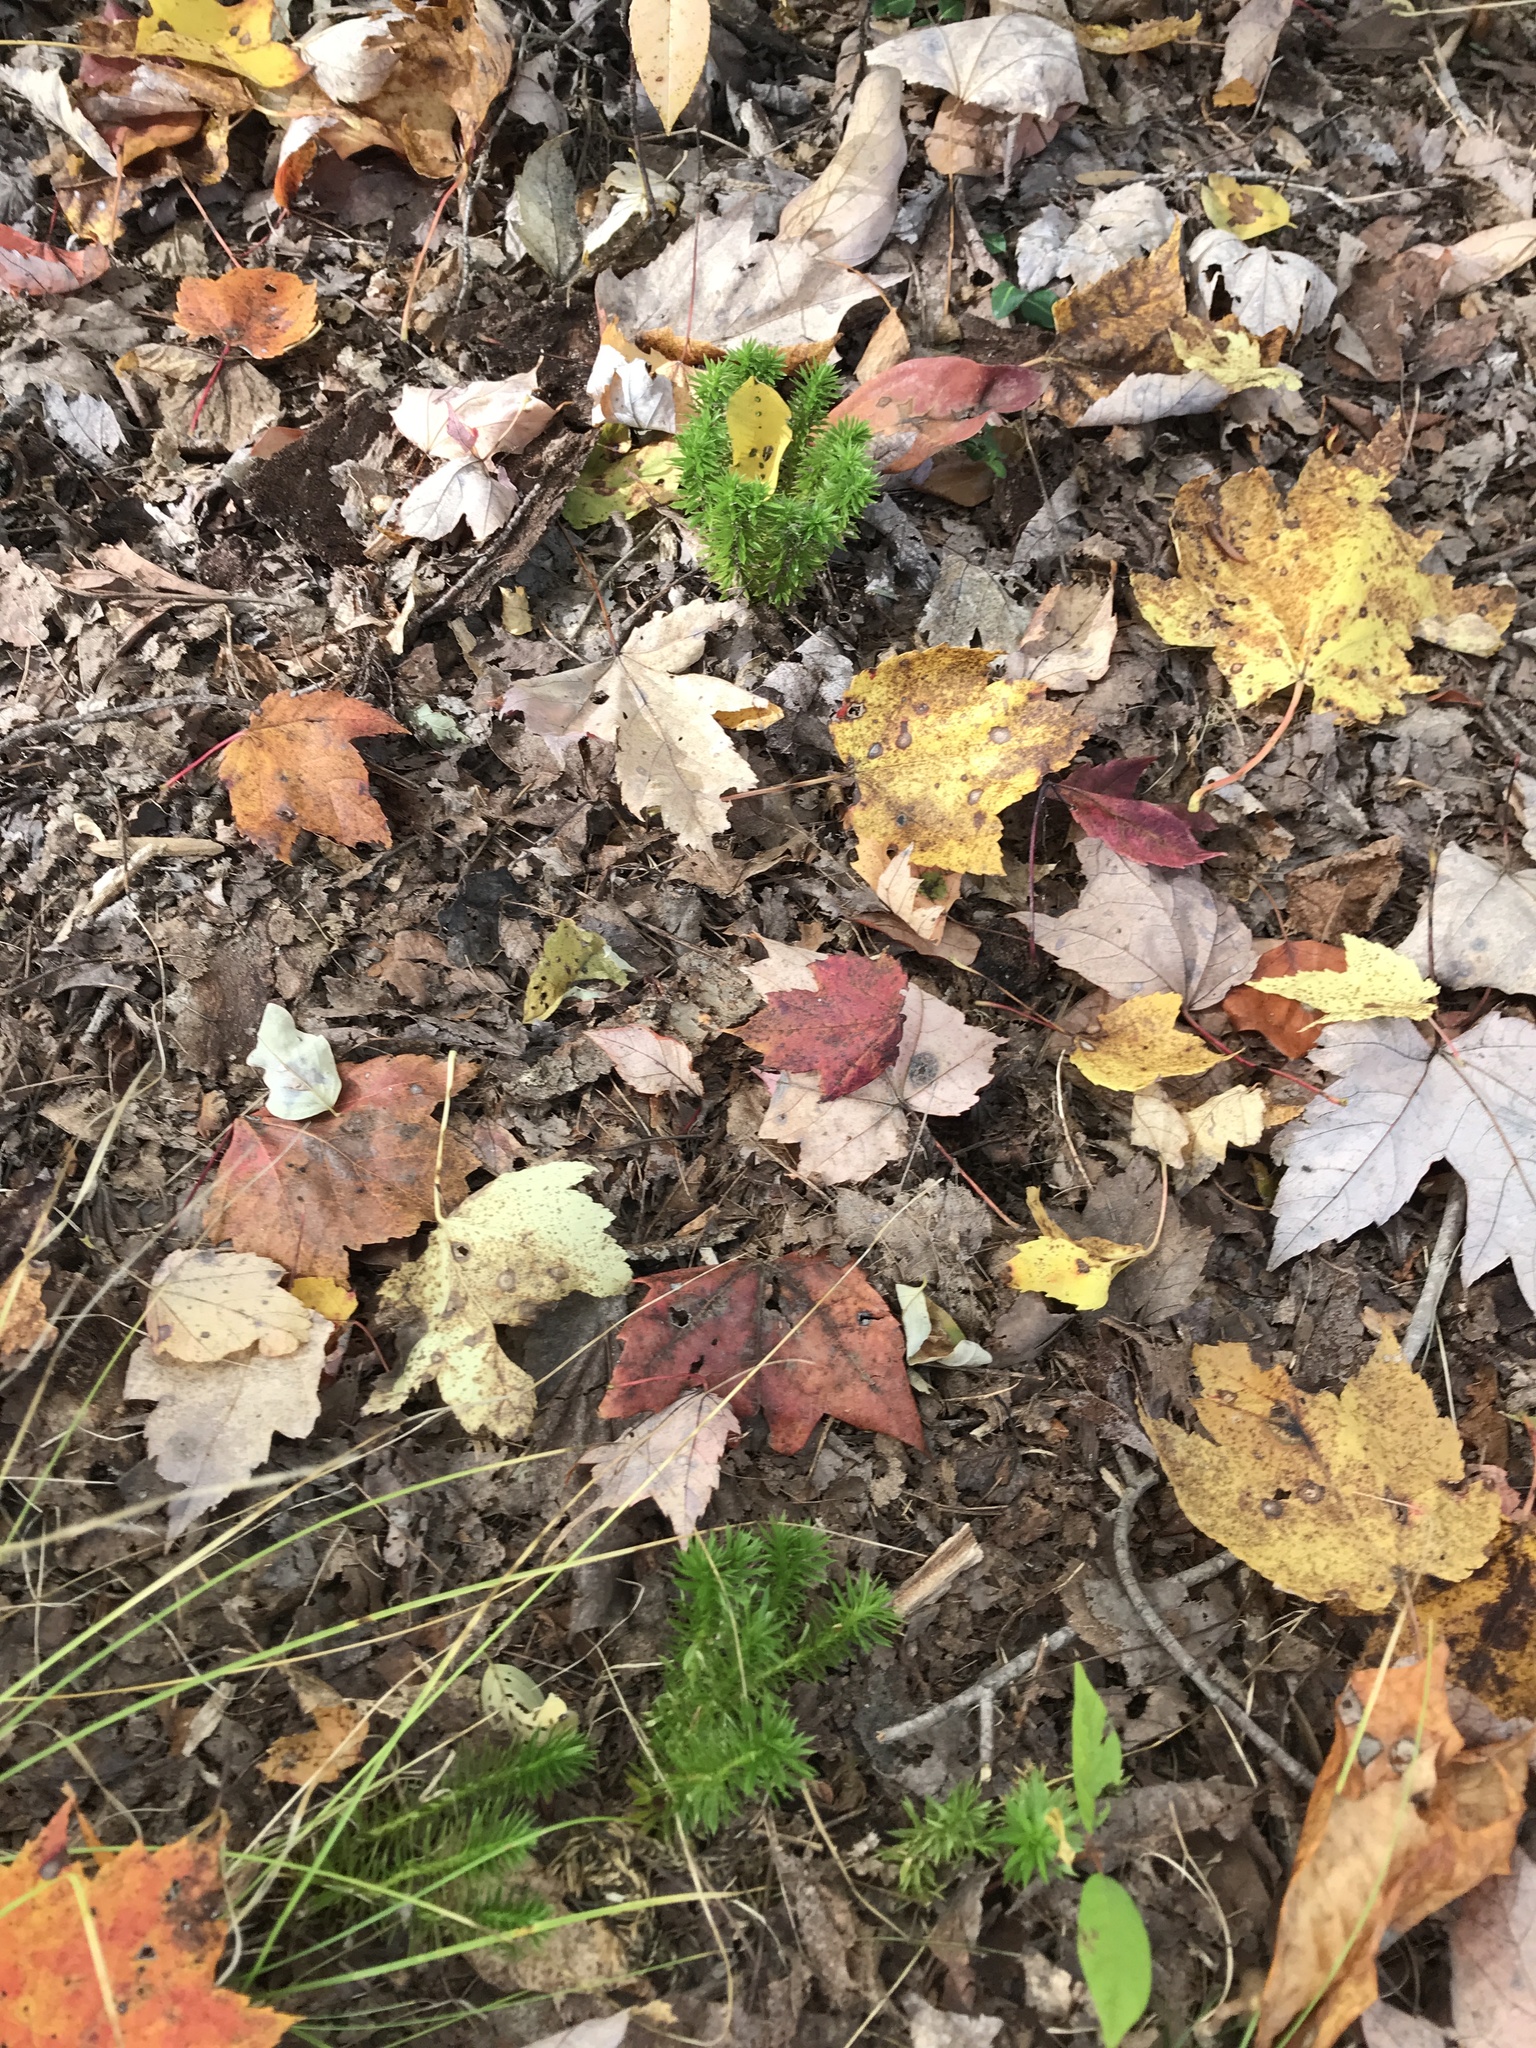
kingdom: Plantae
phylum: Tracheophyta
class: Lycopodiopsida
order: Lycopodiales
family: Lycopodiaceae
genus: Huperzia
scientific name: Huperzia lucidula
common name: Shining clubmoss
